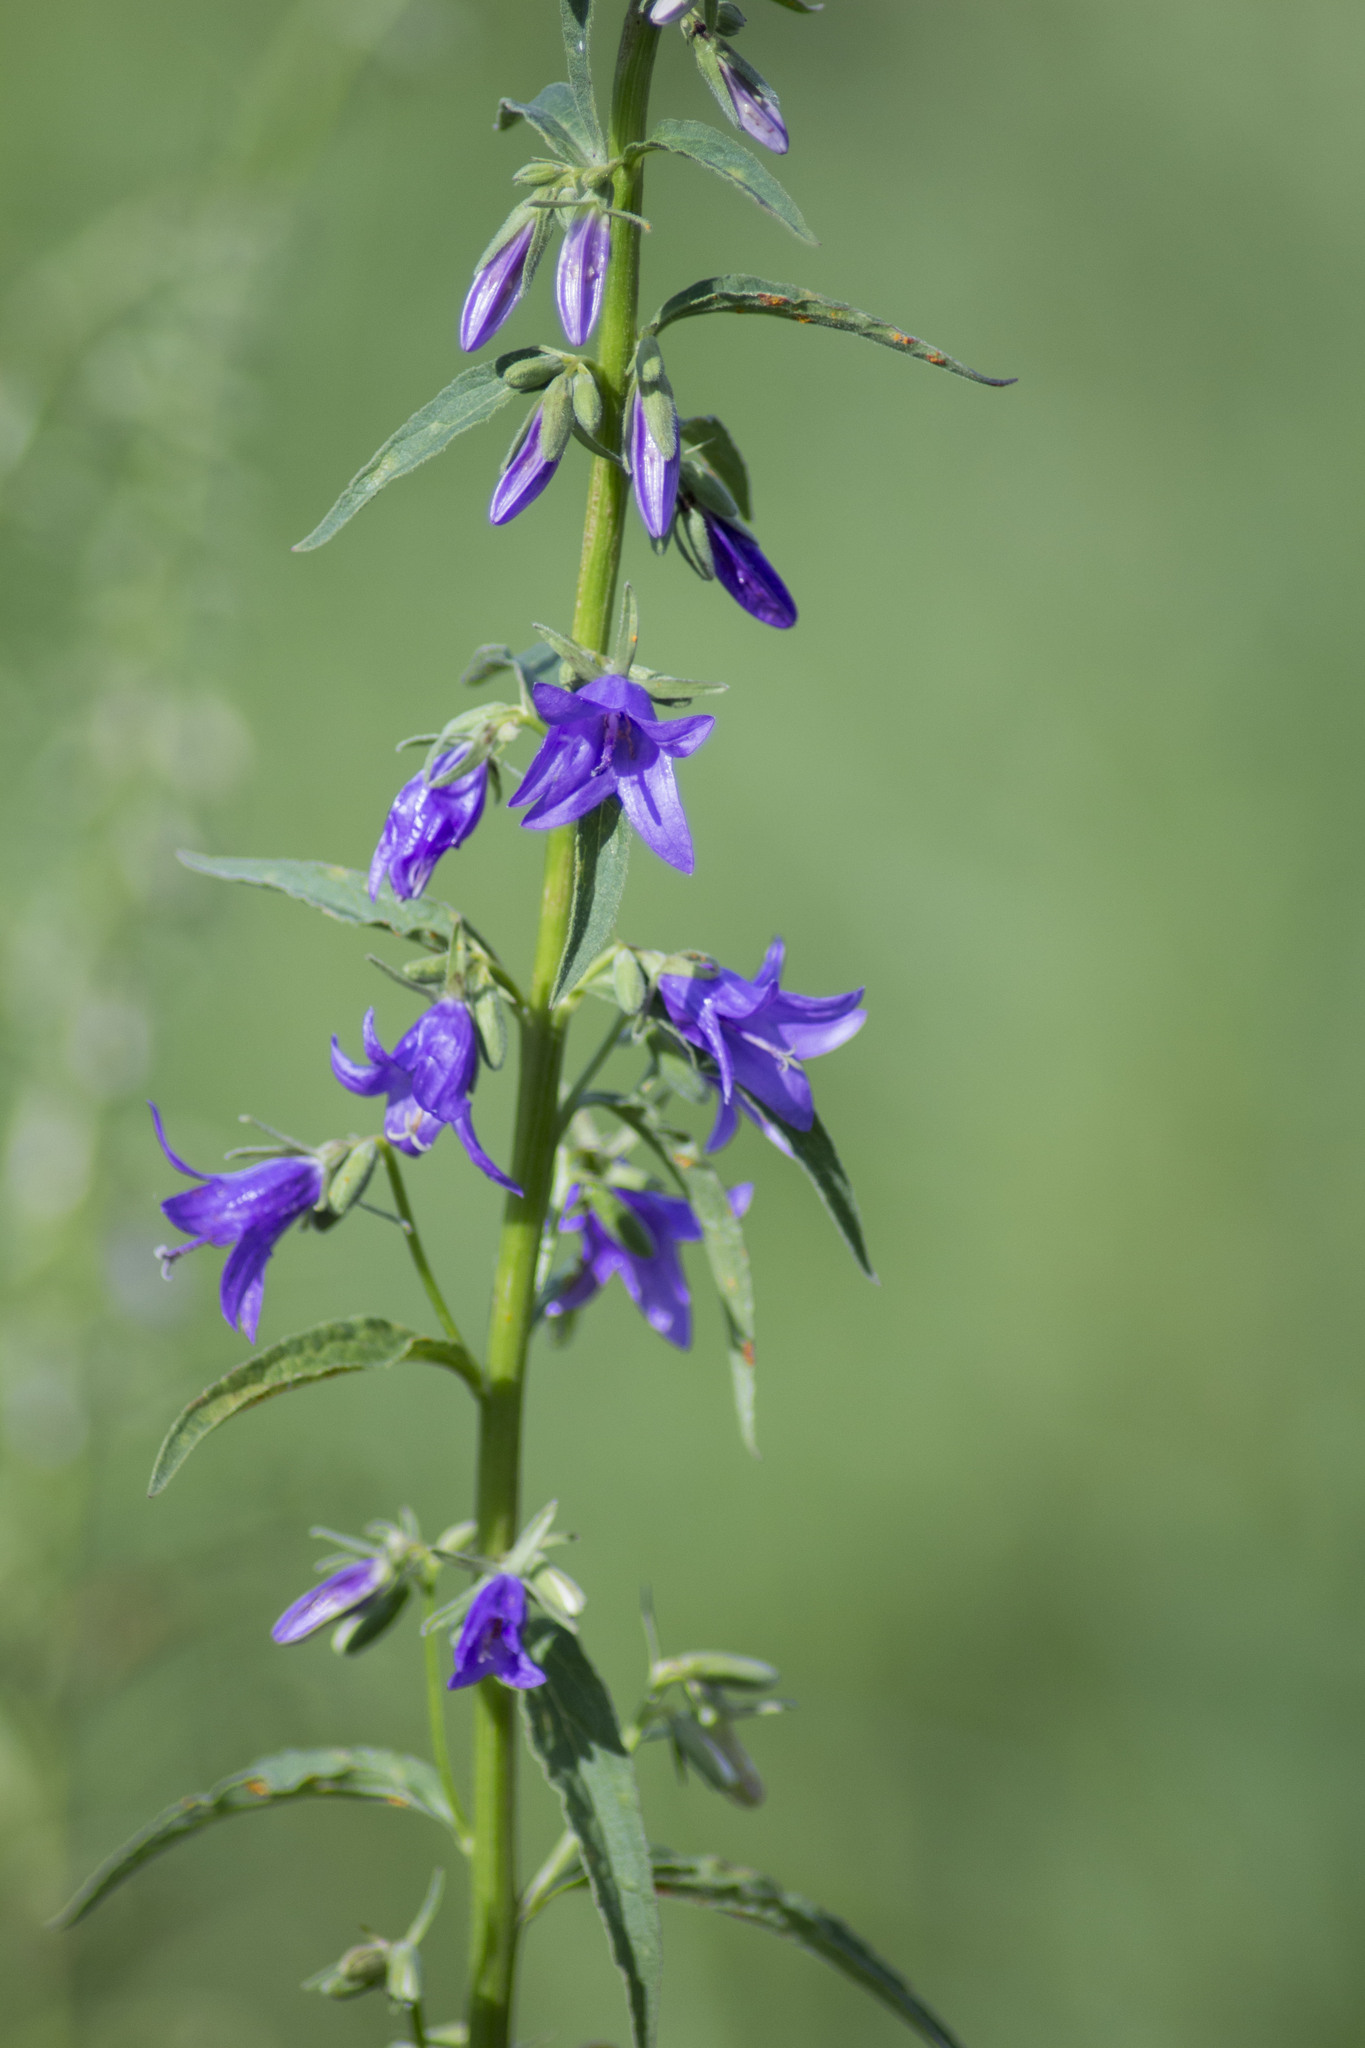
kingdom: Plantae
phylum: Tracheophyta
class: Magnoliopsida
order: Asterales
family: Campanulaceae
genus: Campanula
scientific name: Campanula rapunculoides
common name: Creeping bellflower
